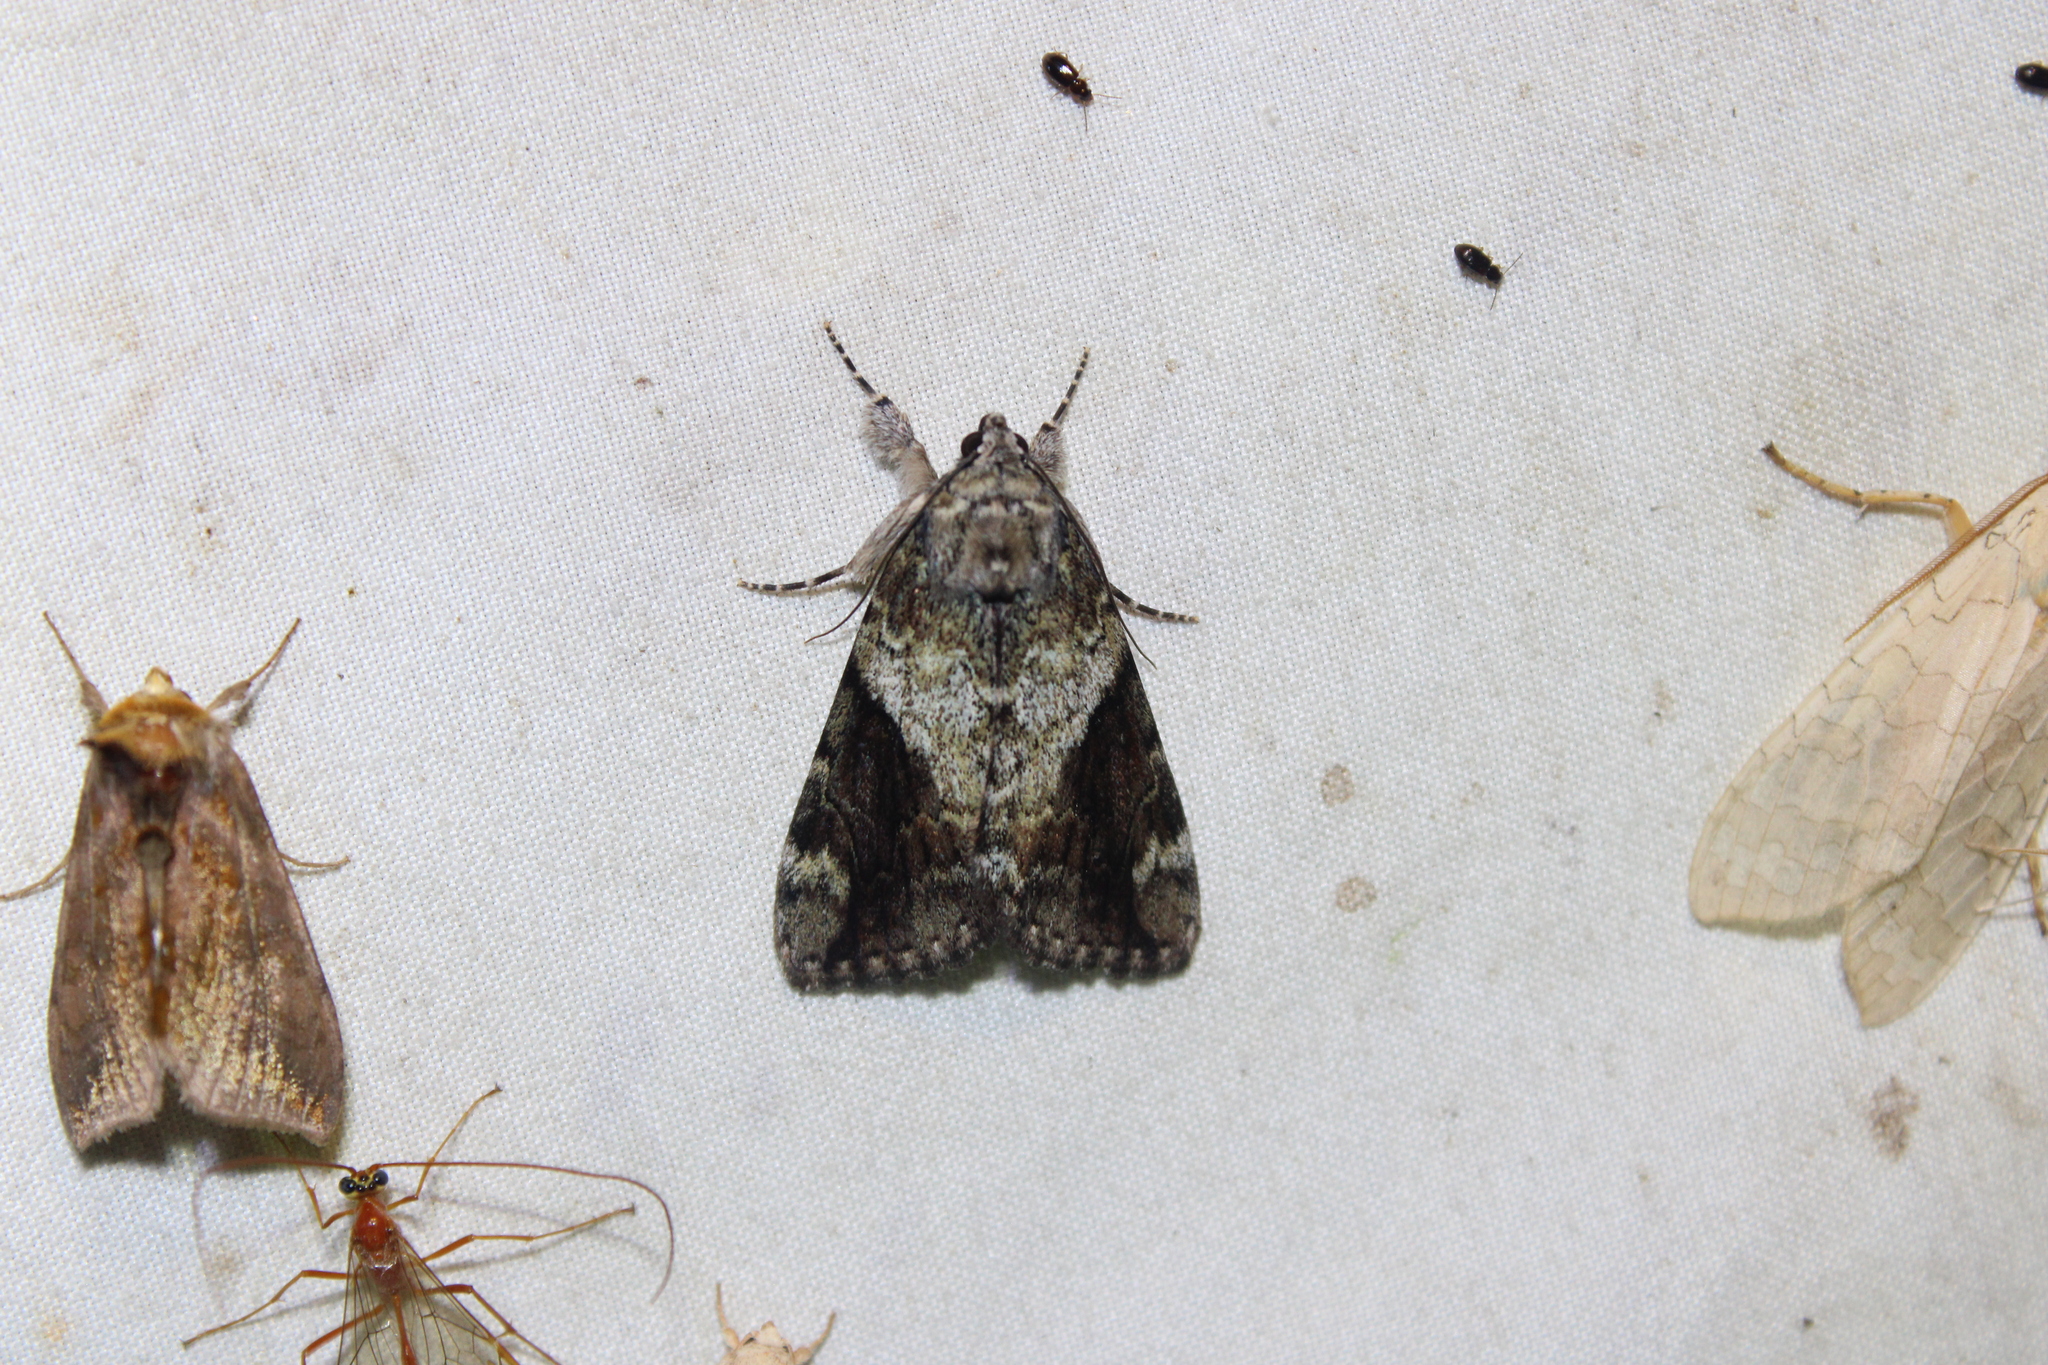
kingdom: Animalia
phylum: Arthropoda
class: Insecta
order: Lepidoptera
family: Erebidae
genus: Catocala
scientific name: Catocala micronympha
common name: Little nymph underwing
